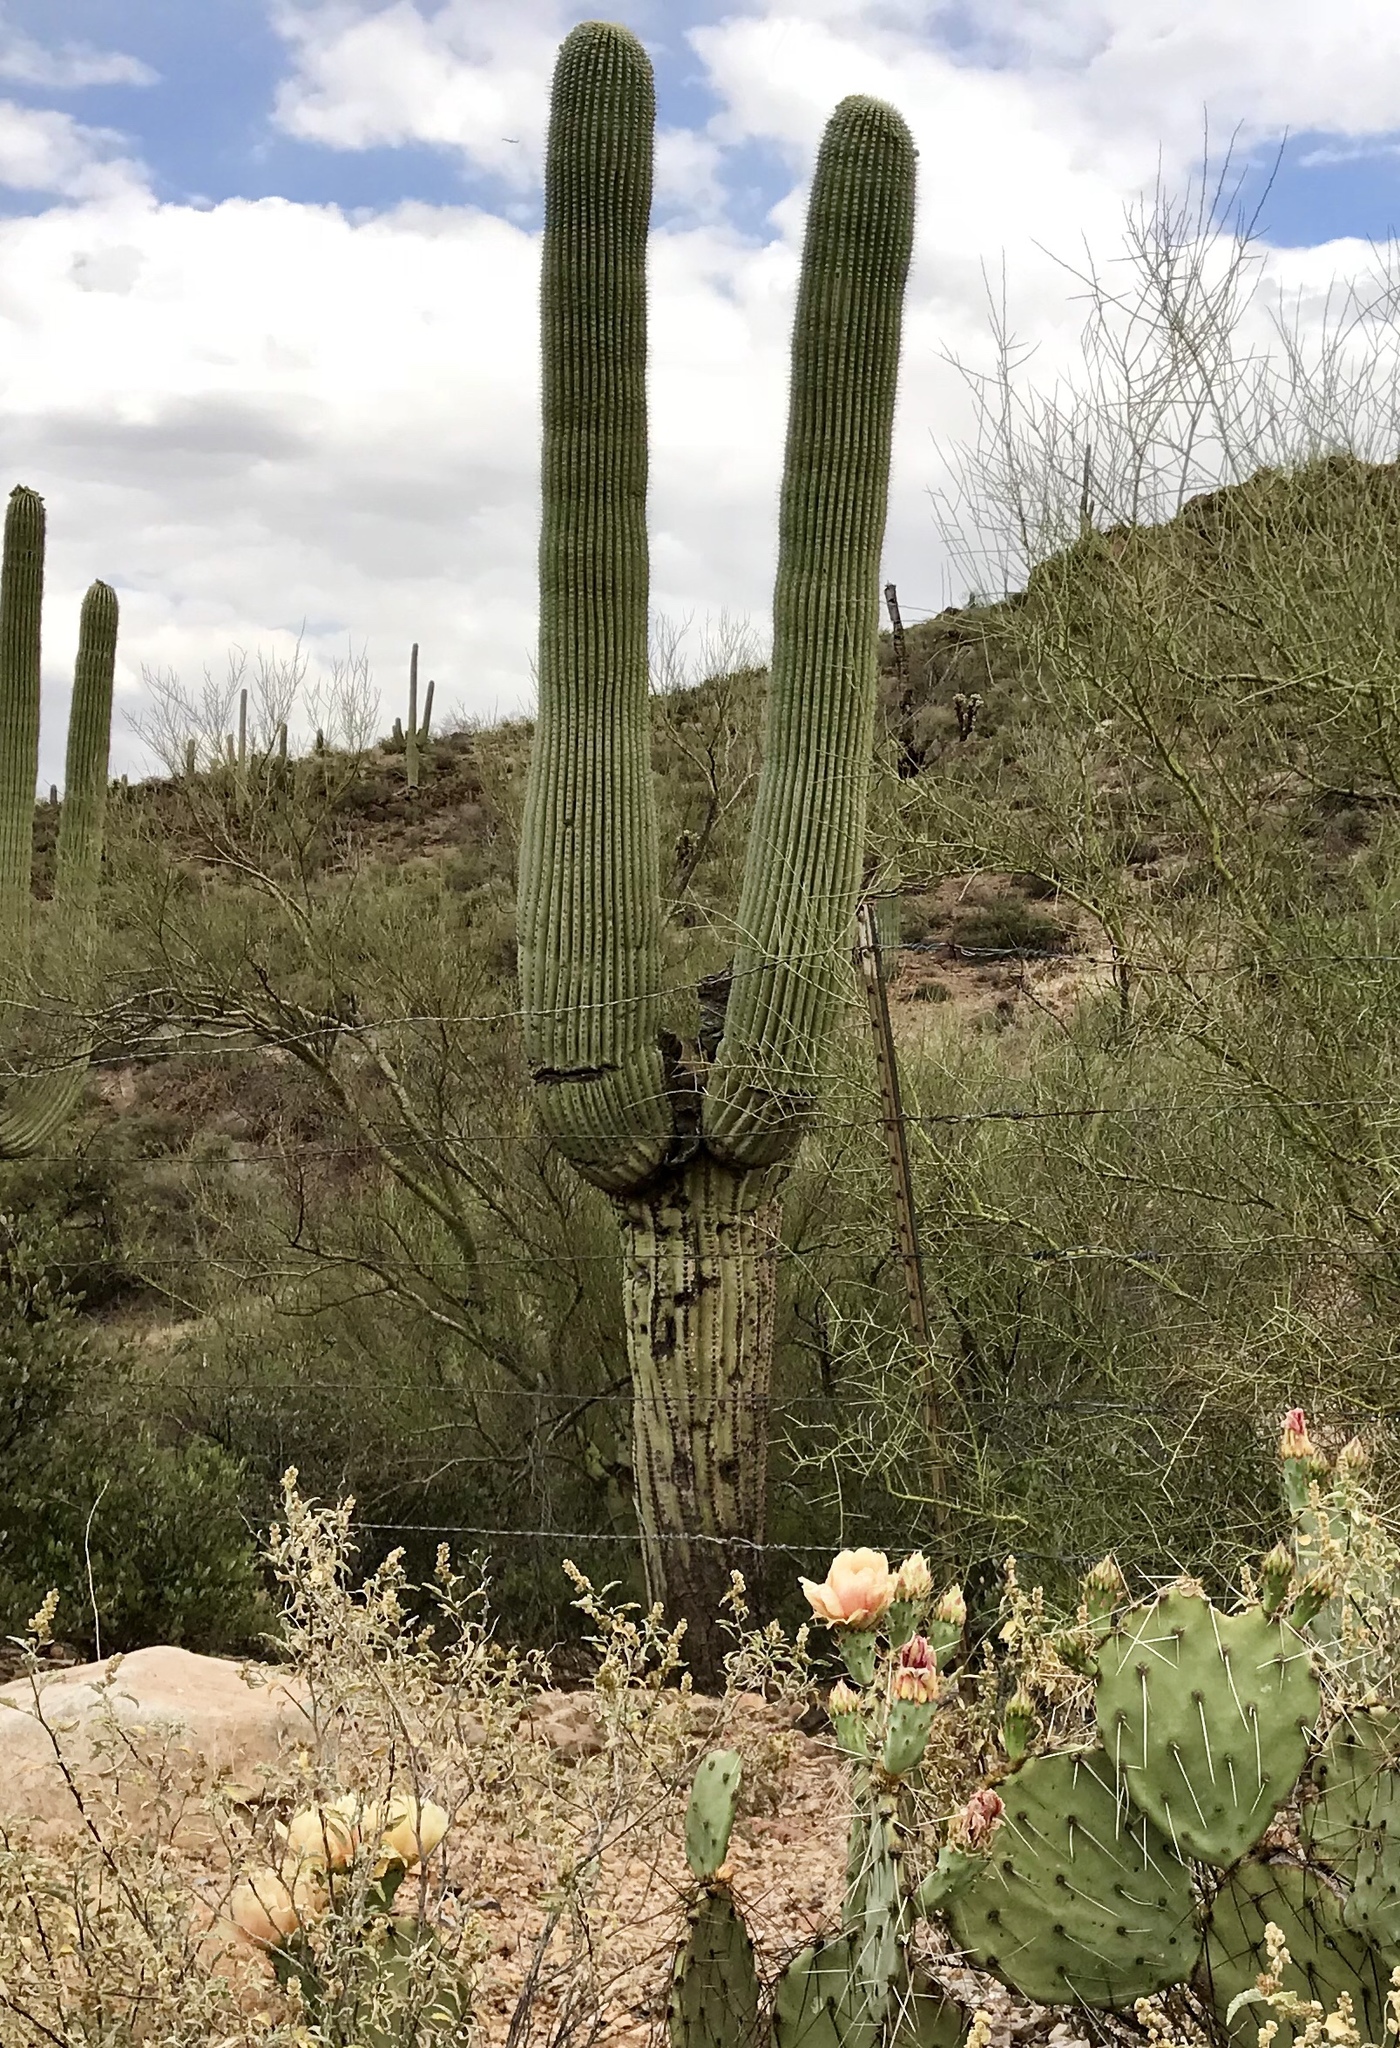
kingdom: Plantae
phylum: Tracheophyta
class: Magnoliopsida
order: Caryophyllales
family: Cactaceae
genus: Carnegiea
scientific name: Carnegiea gigantea
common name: Saguaro
